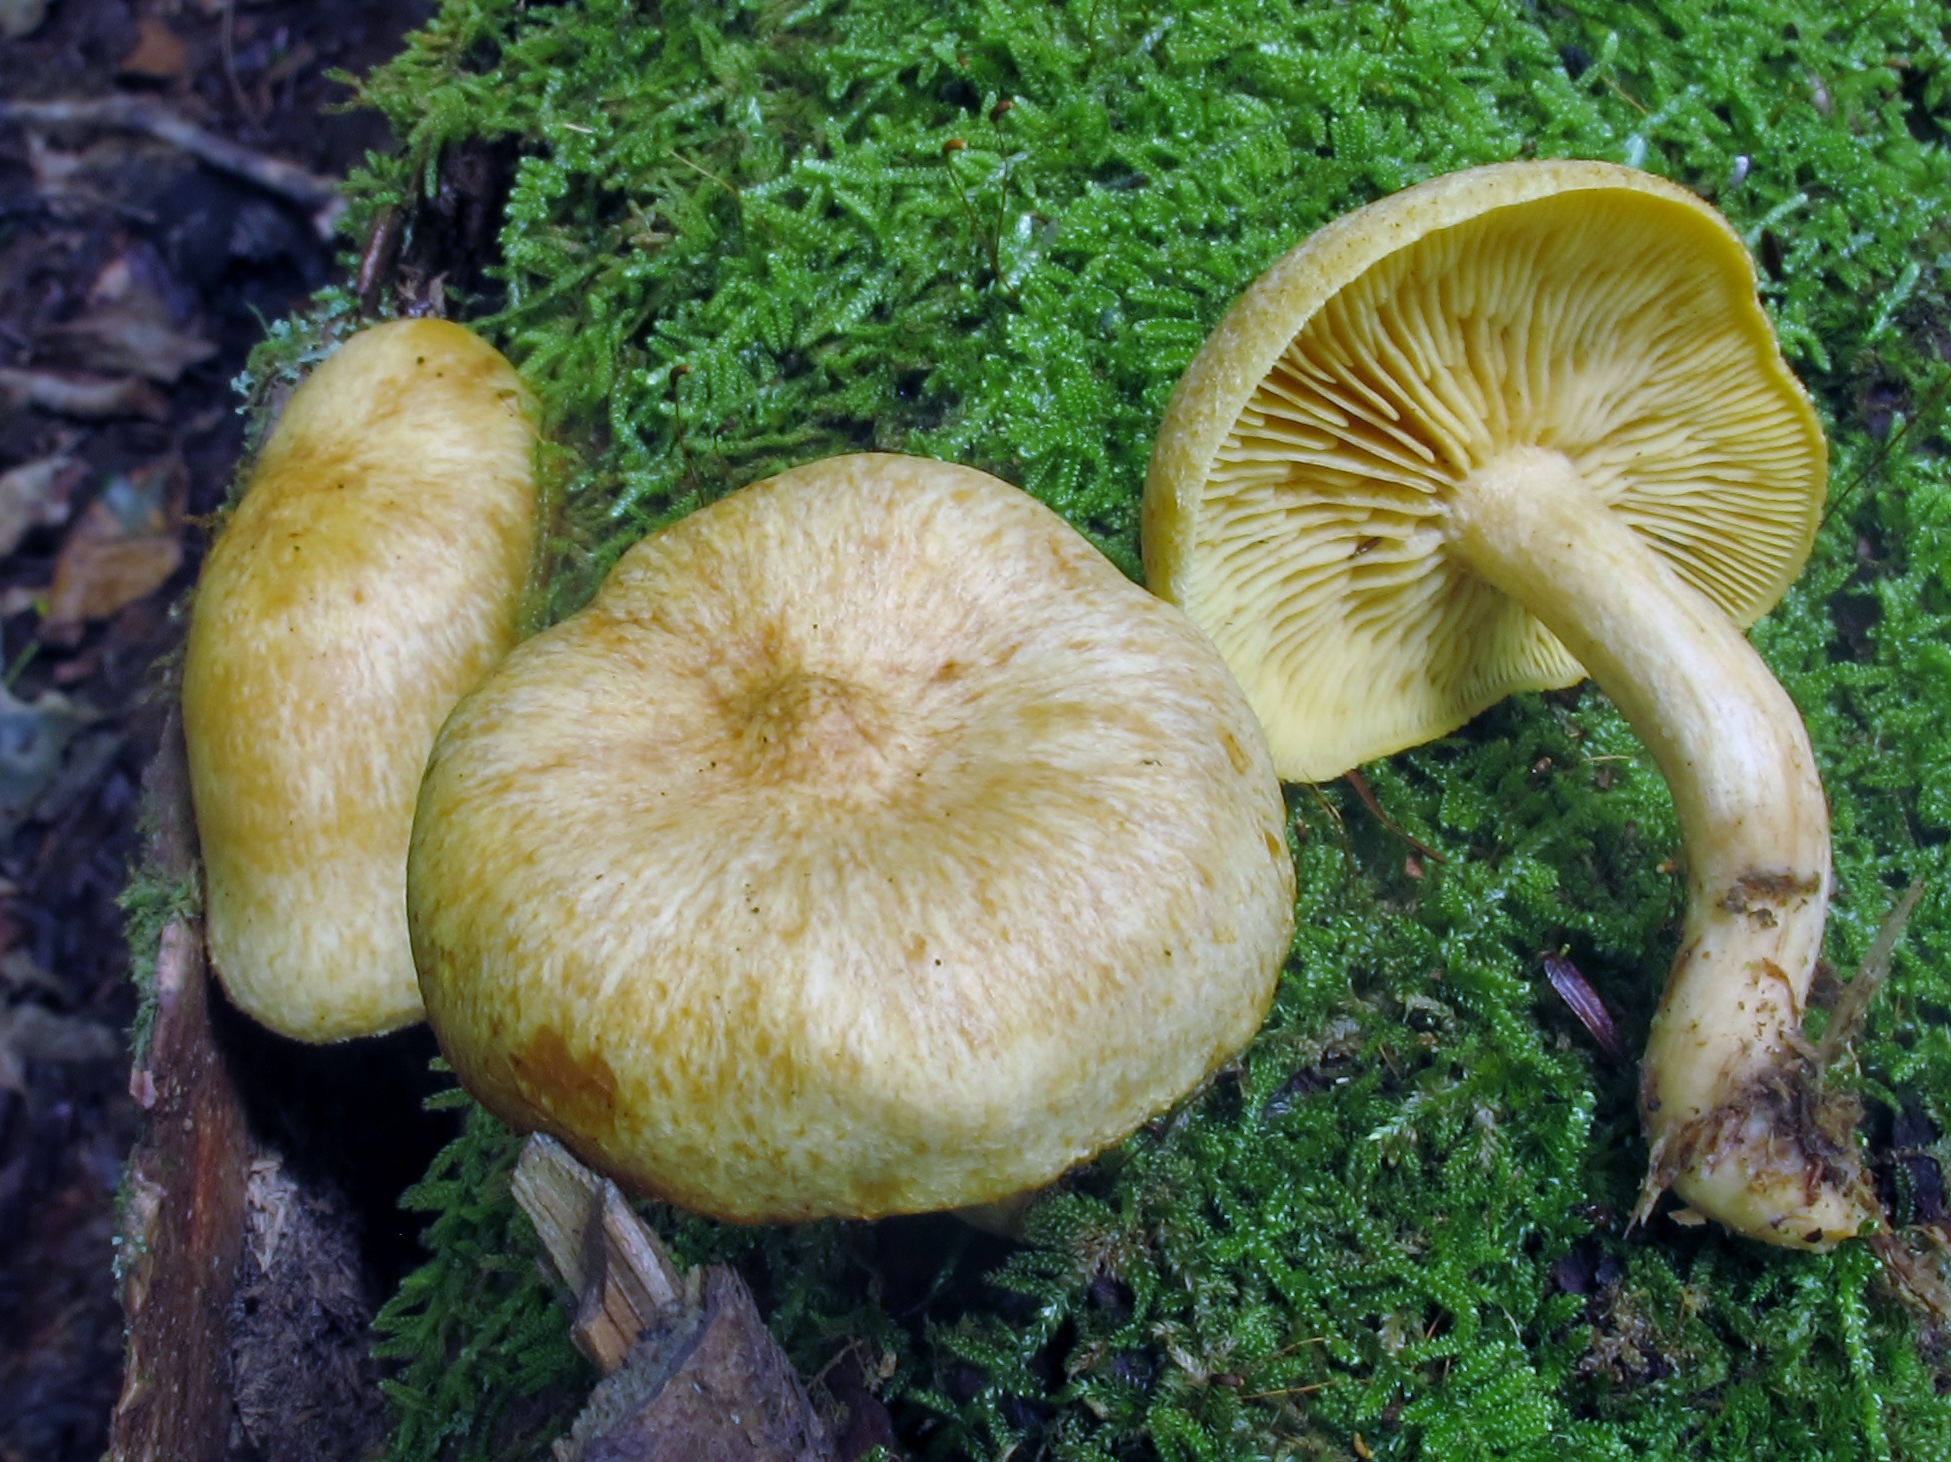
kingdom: Fungi
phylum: Basidiomycota
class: Agaricomycetes
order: Agaricales
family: Tricholomataceae
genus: Tricholomopsis
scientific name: Tricholomopsis sulfureoides
